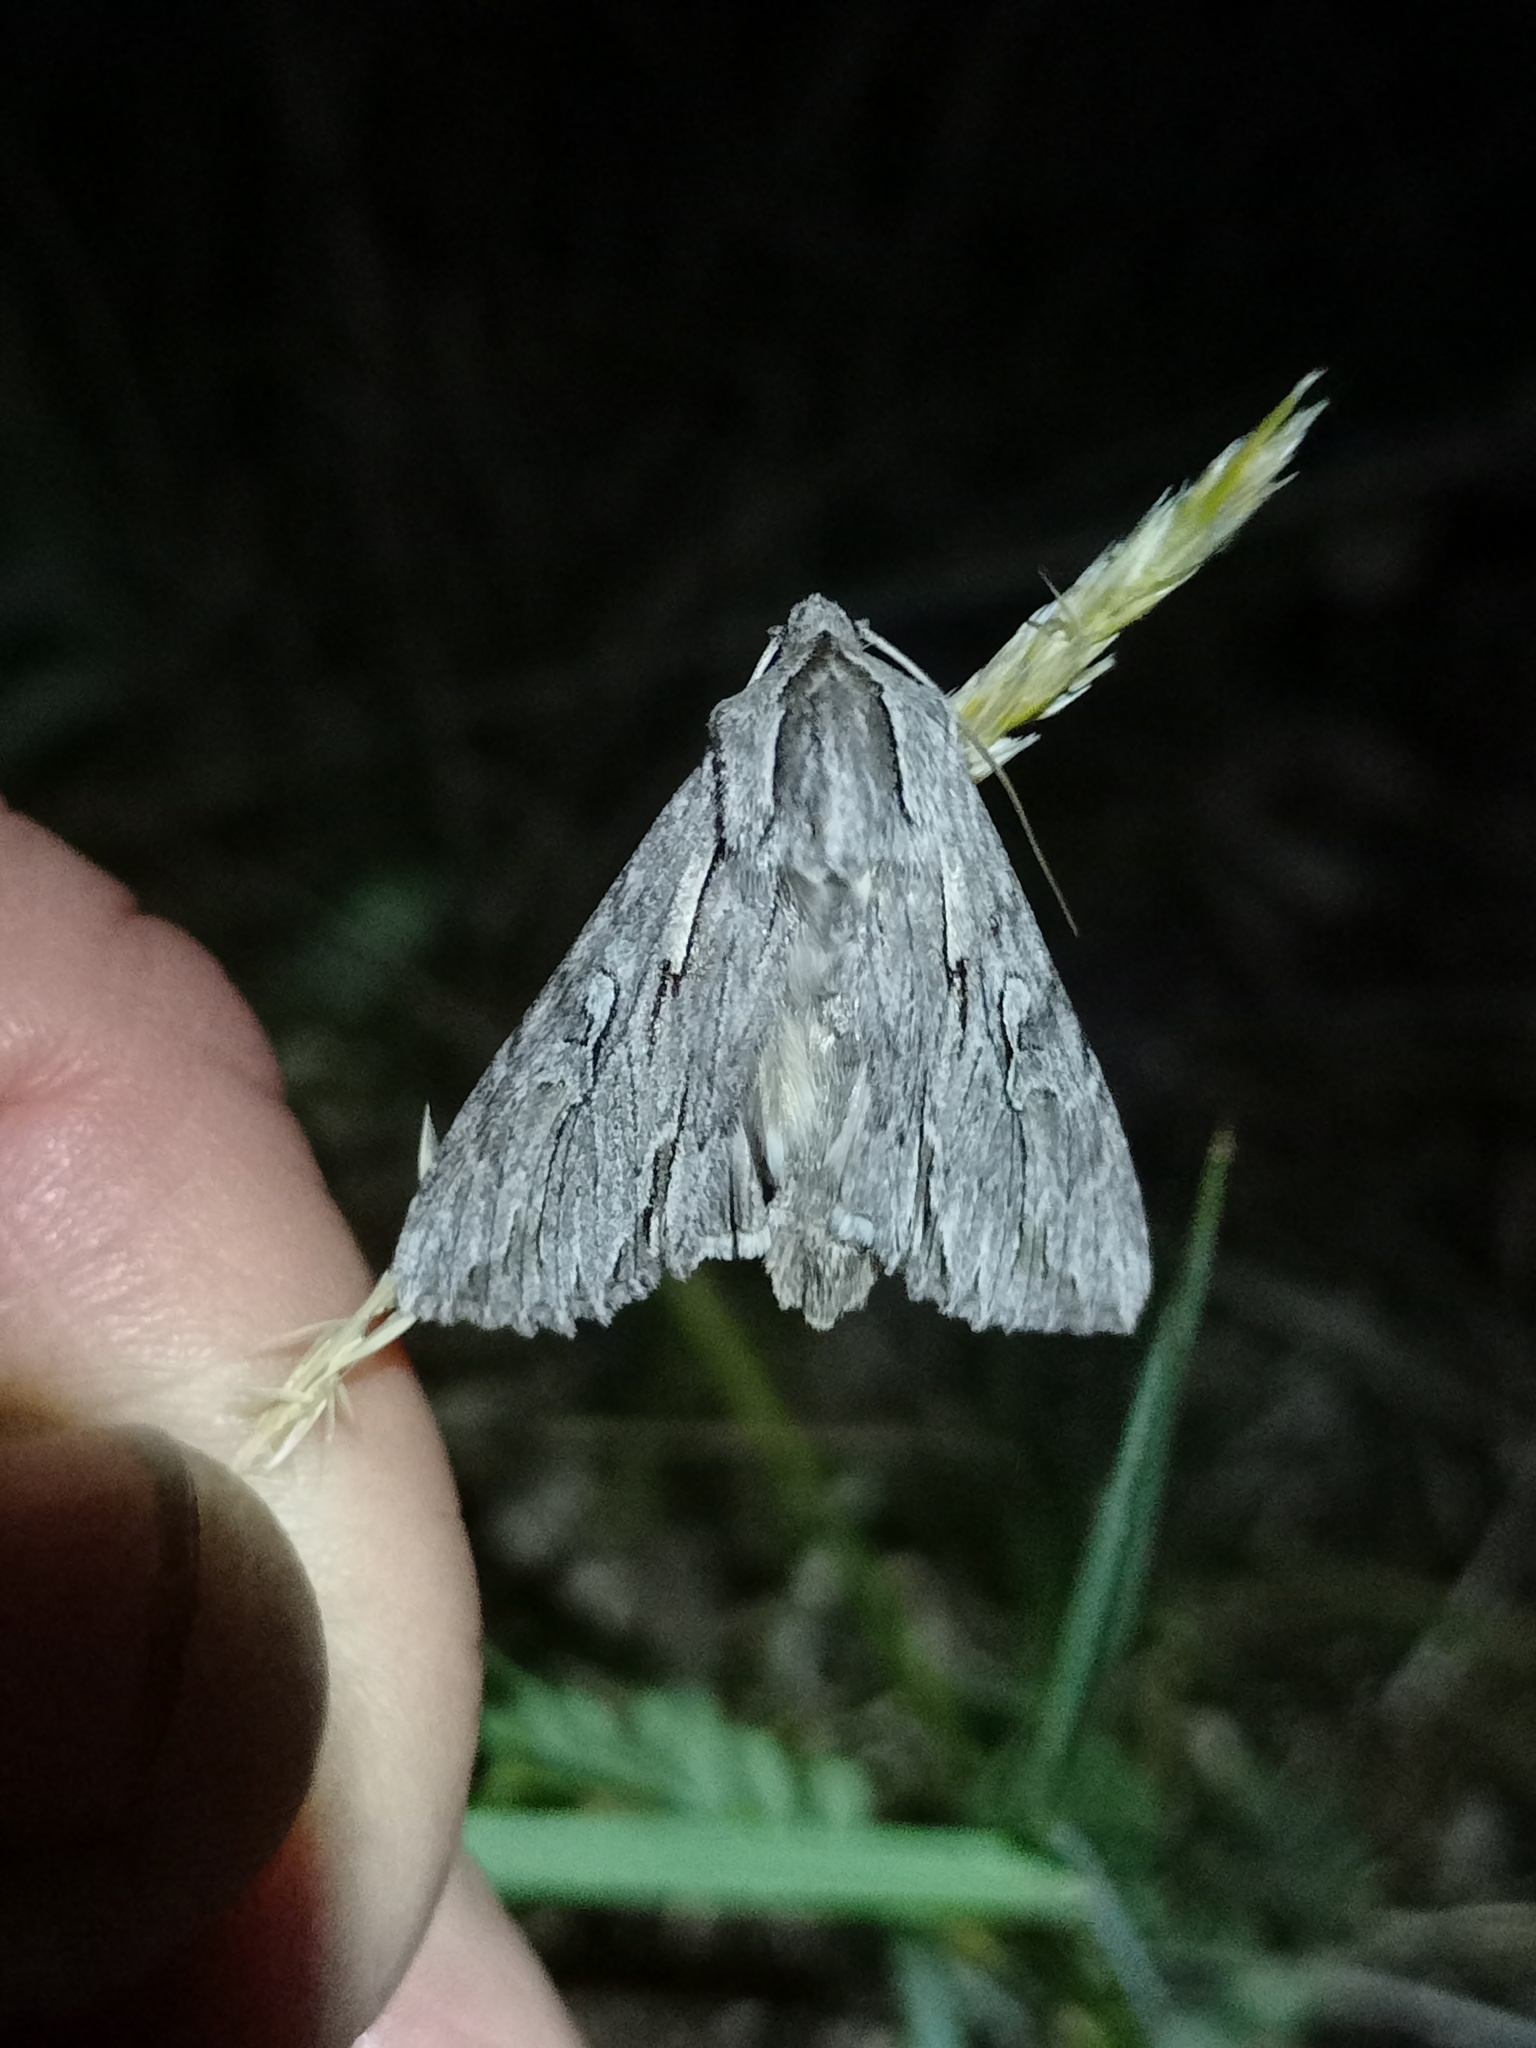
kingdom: Animalia
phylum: Arthropoda
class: Insecta
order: Lepidoptera
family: Noctuidae
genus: Auchmis
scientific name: Auchmis detersa
